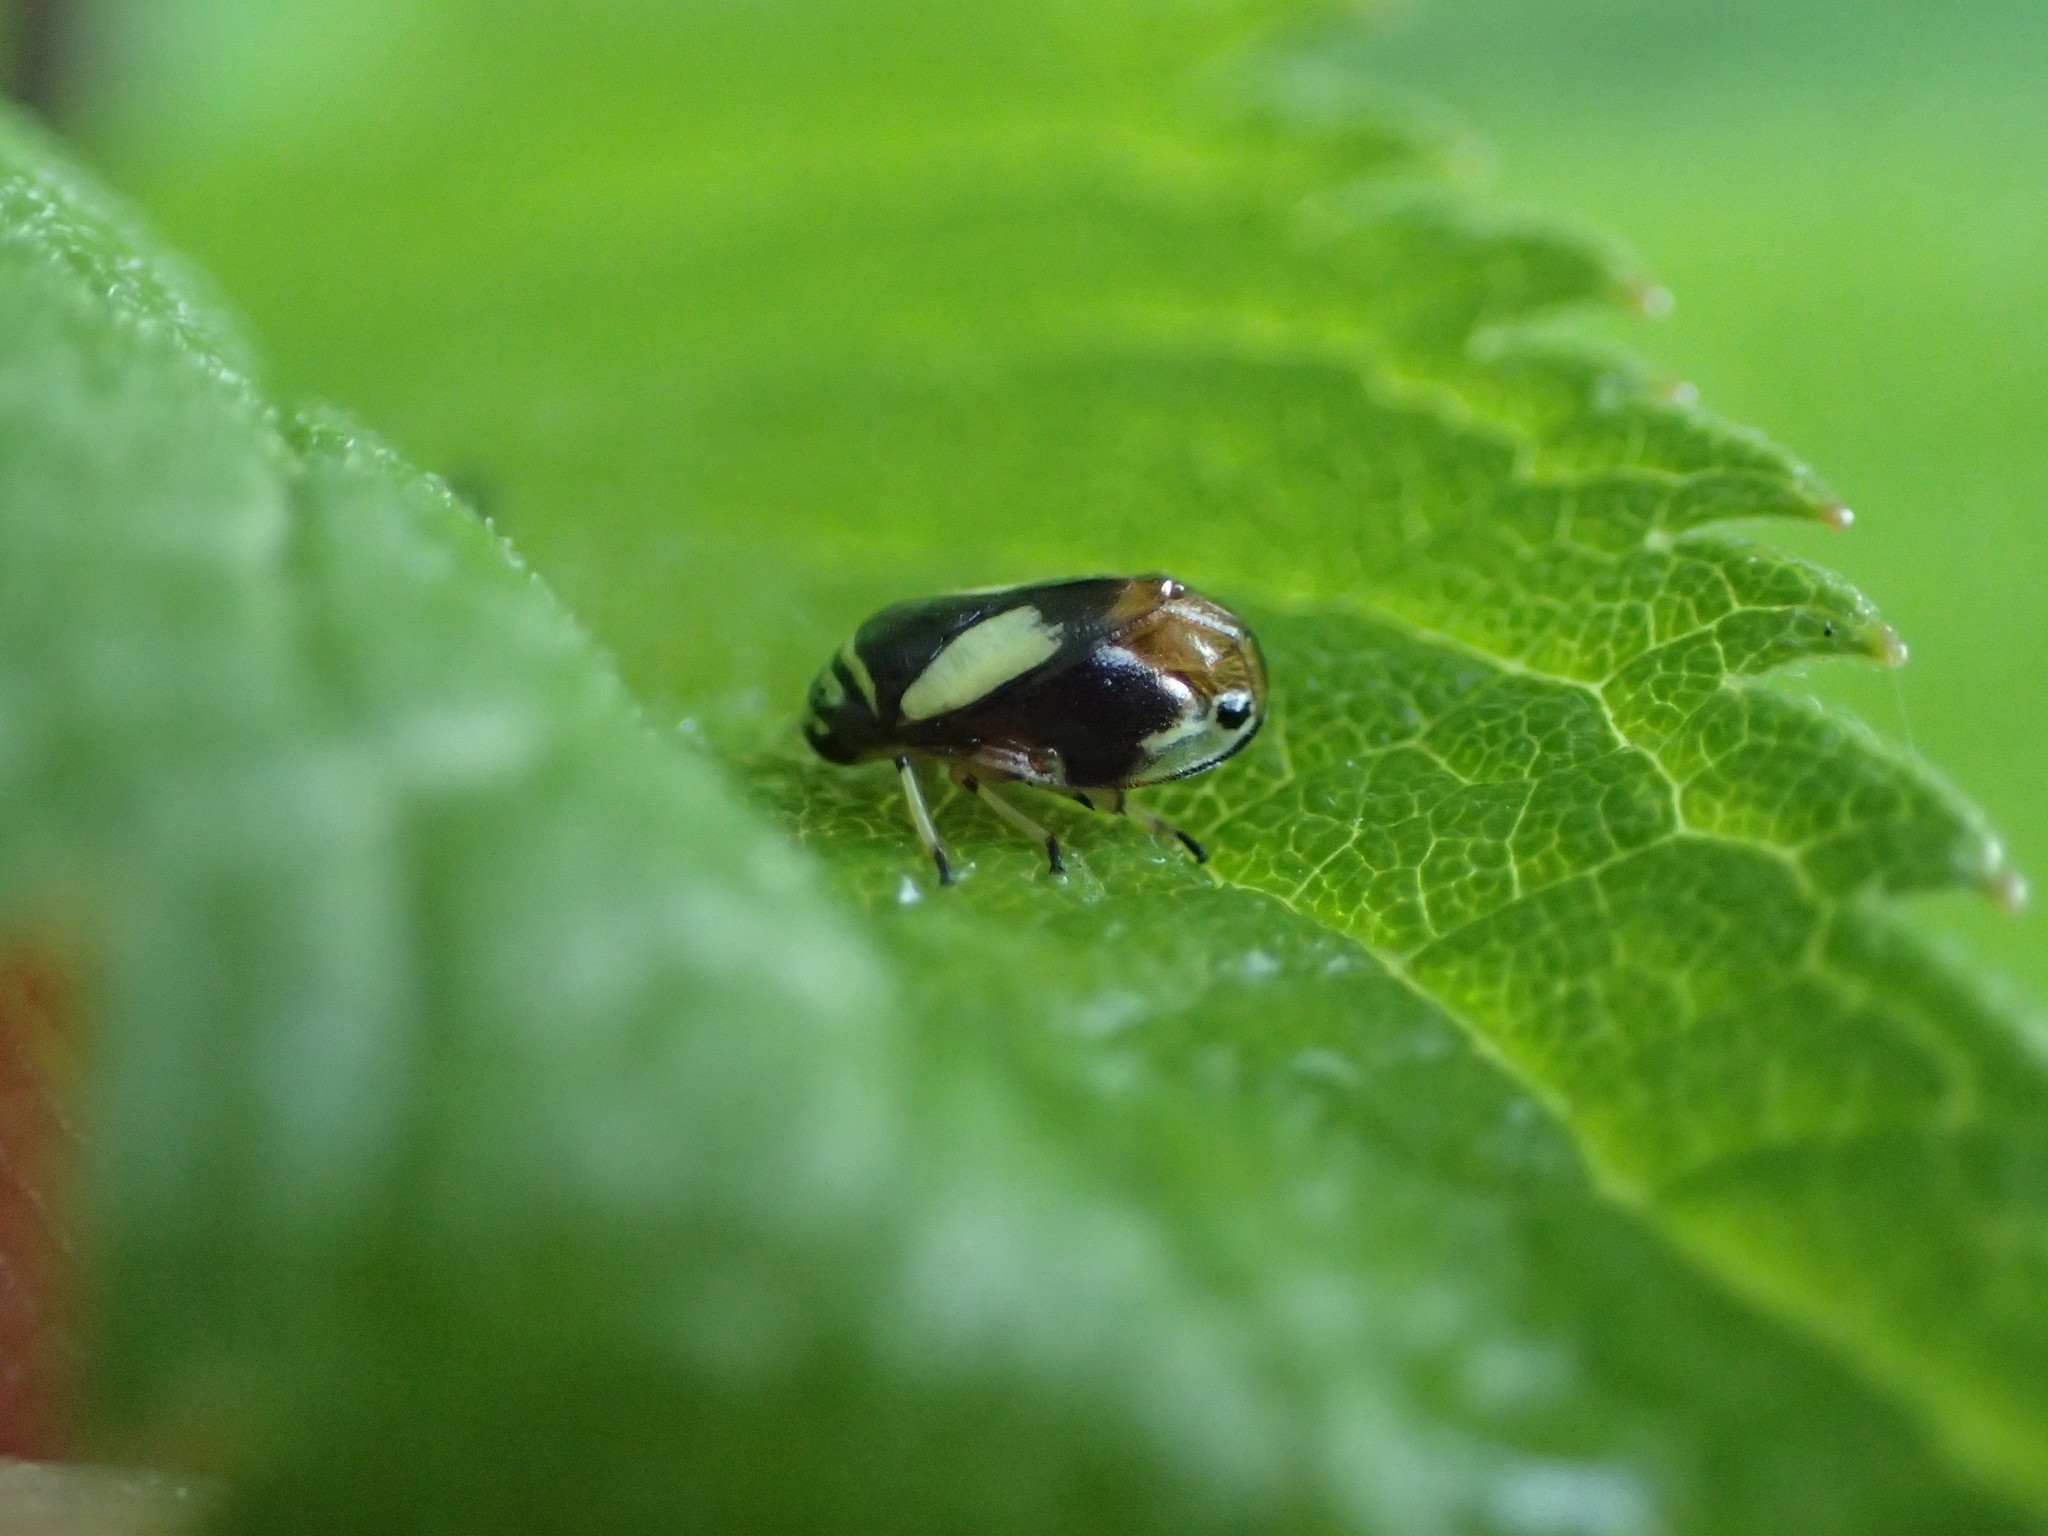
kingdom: Animalia
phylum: Arthropoda
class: Insecta
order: Hemiptera
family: Clastopteridae
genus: Clastoptera
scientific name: Clastoptera proteus
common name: Dogwood spittlebug
